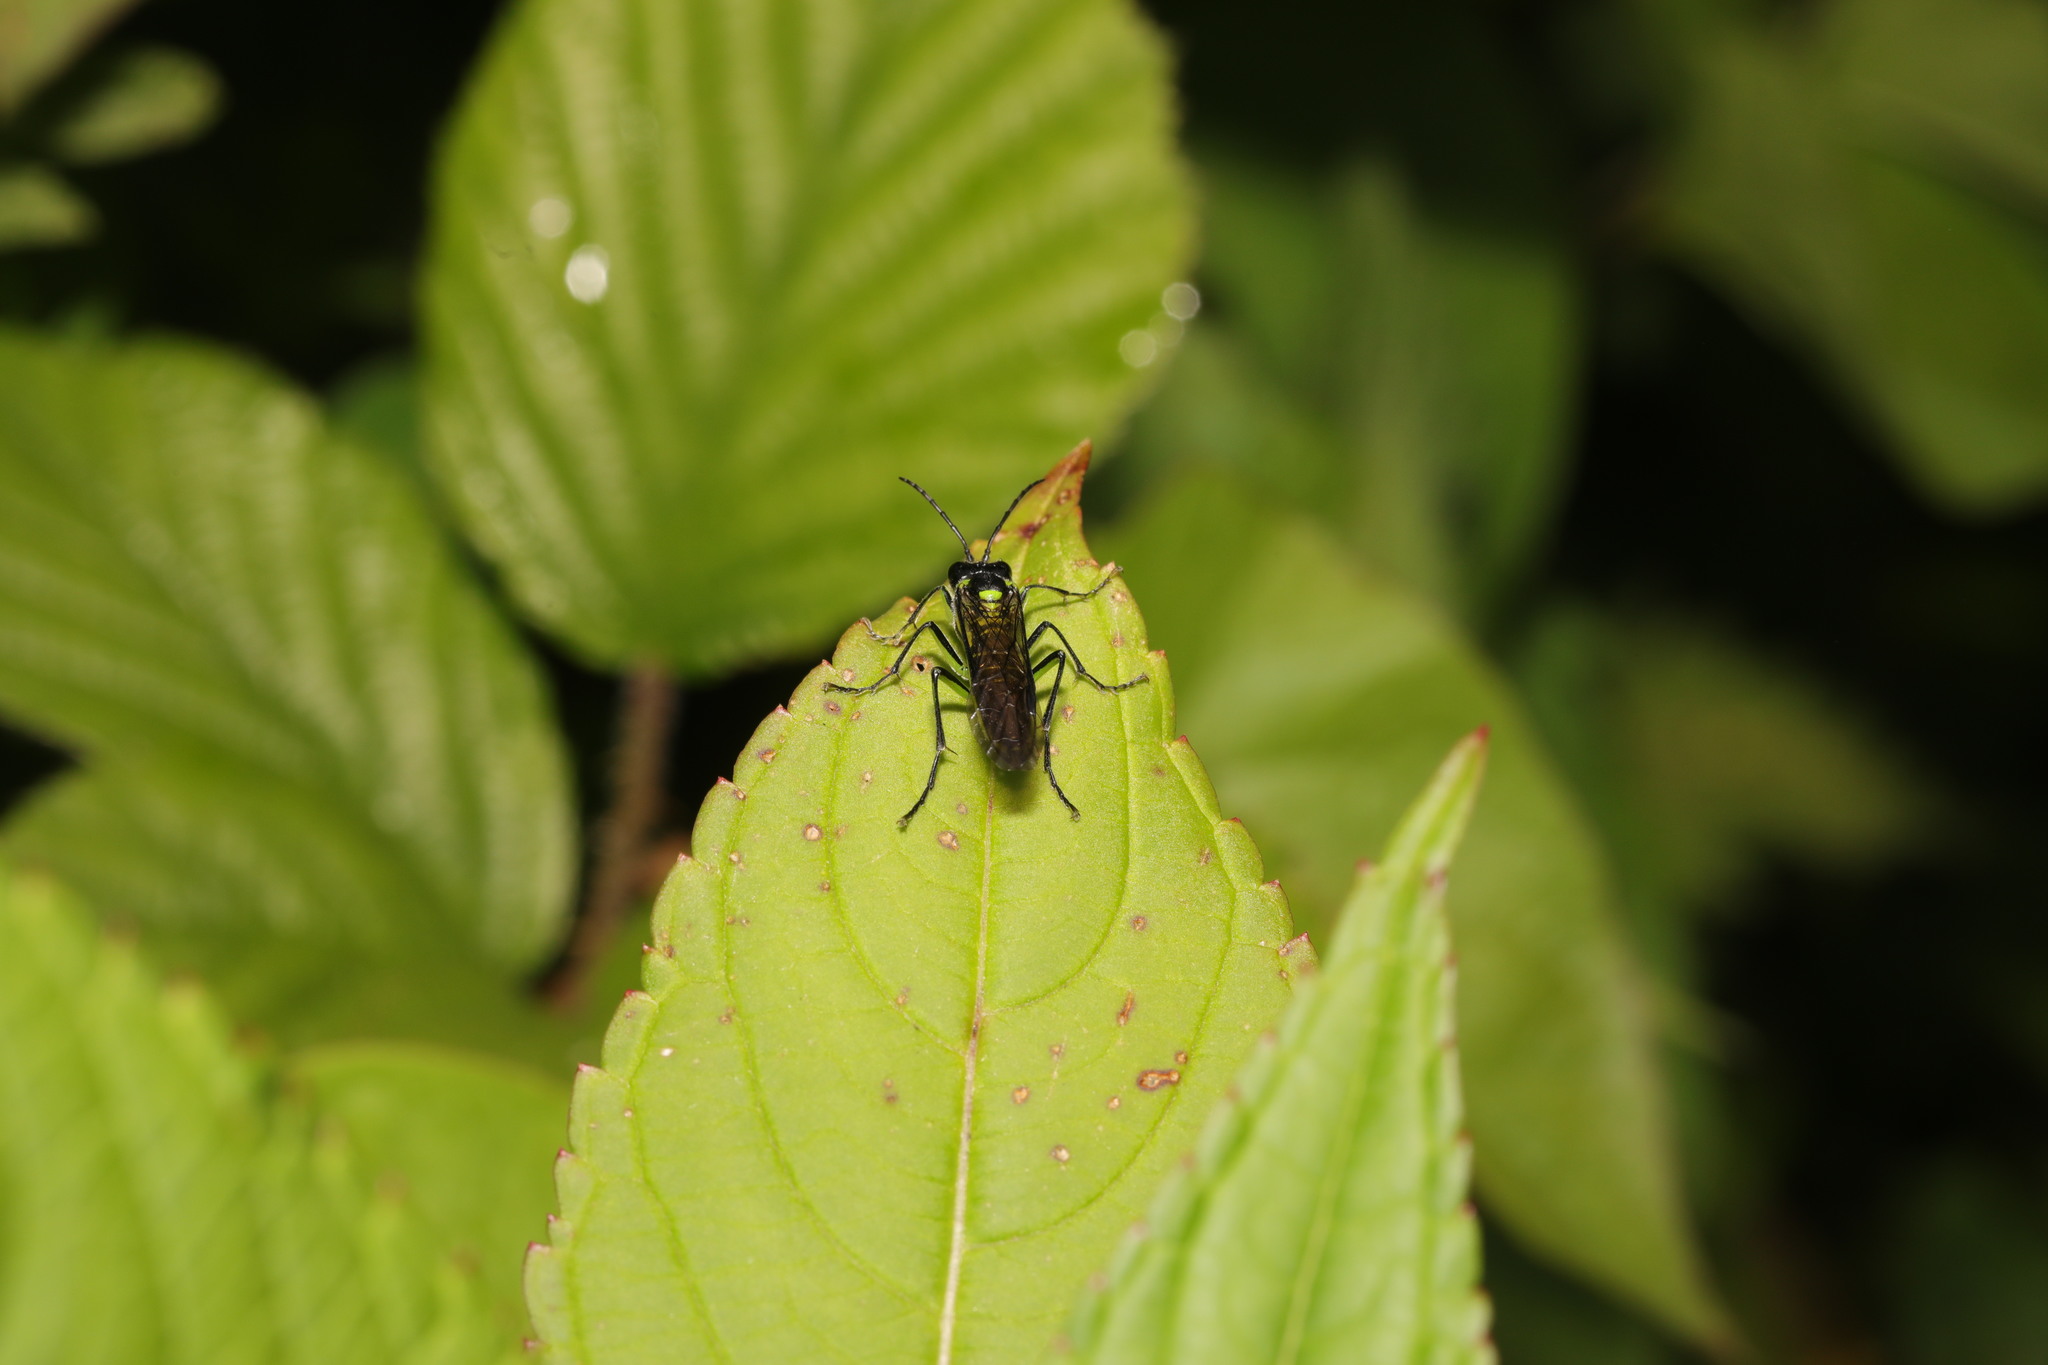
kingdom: Animalia
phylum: Arthropoda
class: Insecta
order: Hymenoptera
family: Tenthredinidae
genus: Tenthredo
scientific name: Tenthredo mesomela
